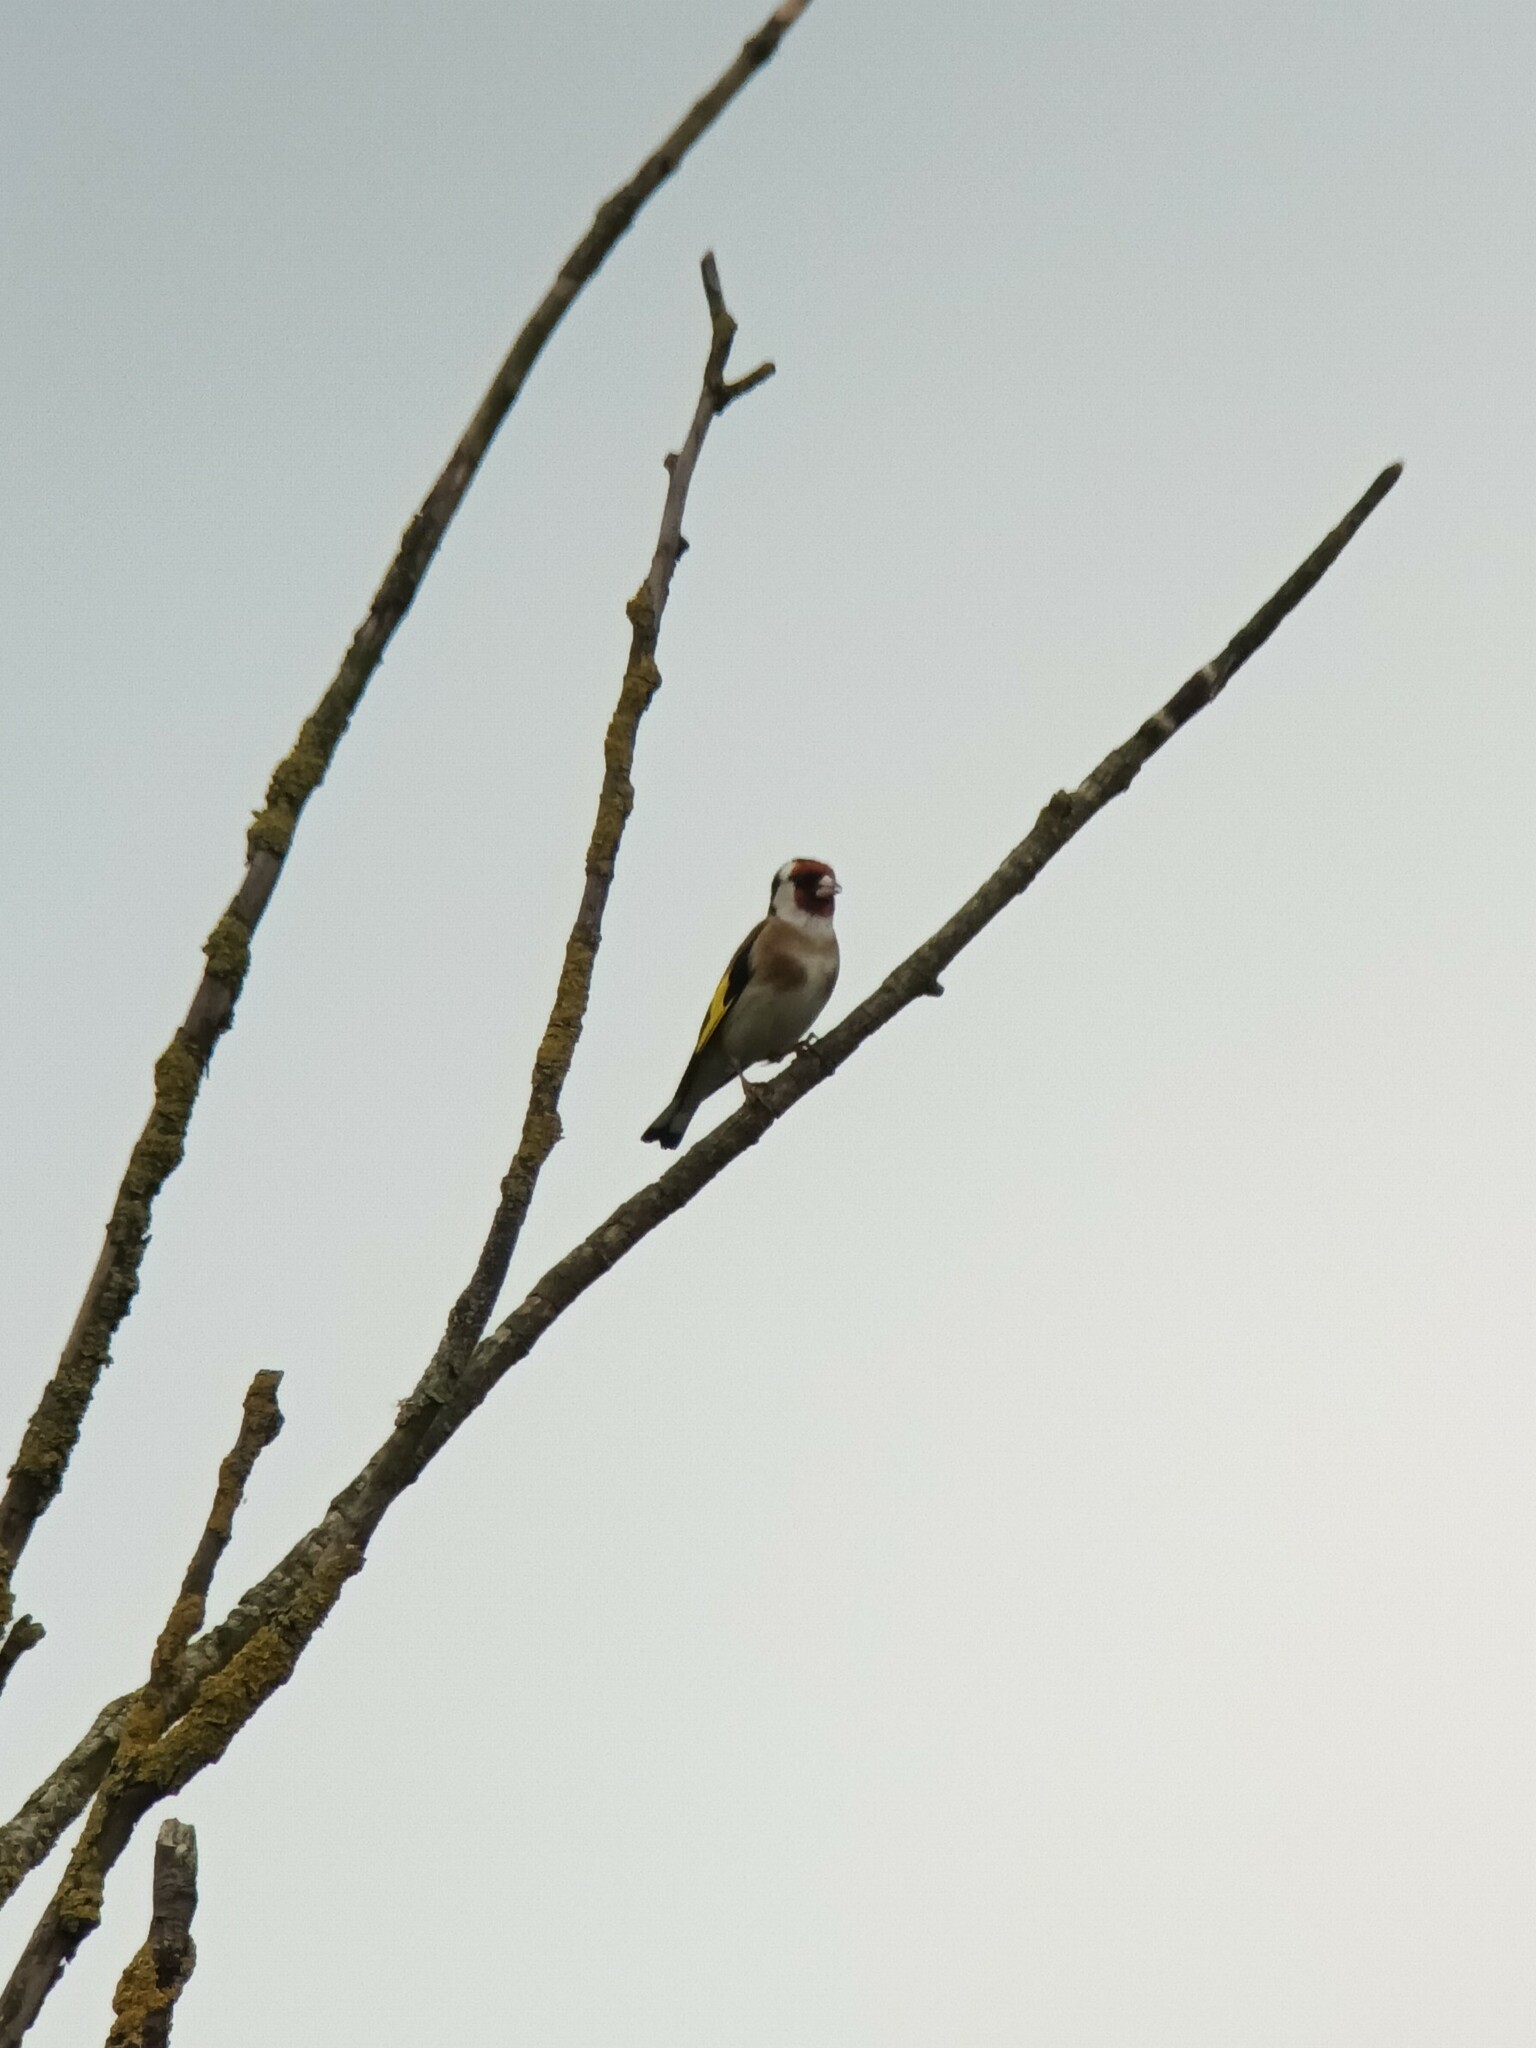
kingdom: Animalia
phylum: Chordata
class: Aves
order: Passeriformes
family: Fringillidae
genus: Carduelis
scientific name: Carduelis carduelis
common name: European goldfinch
